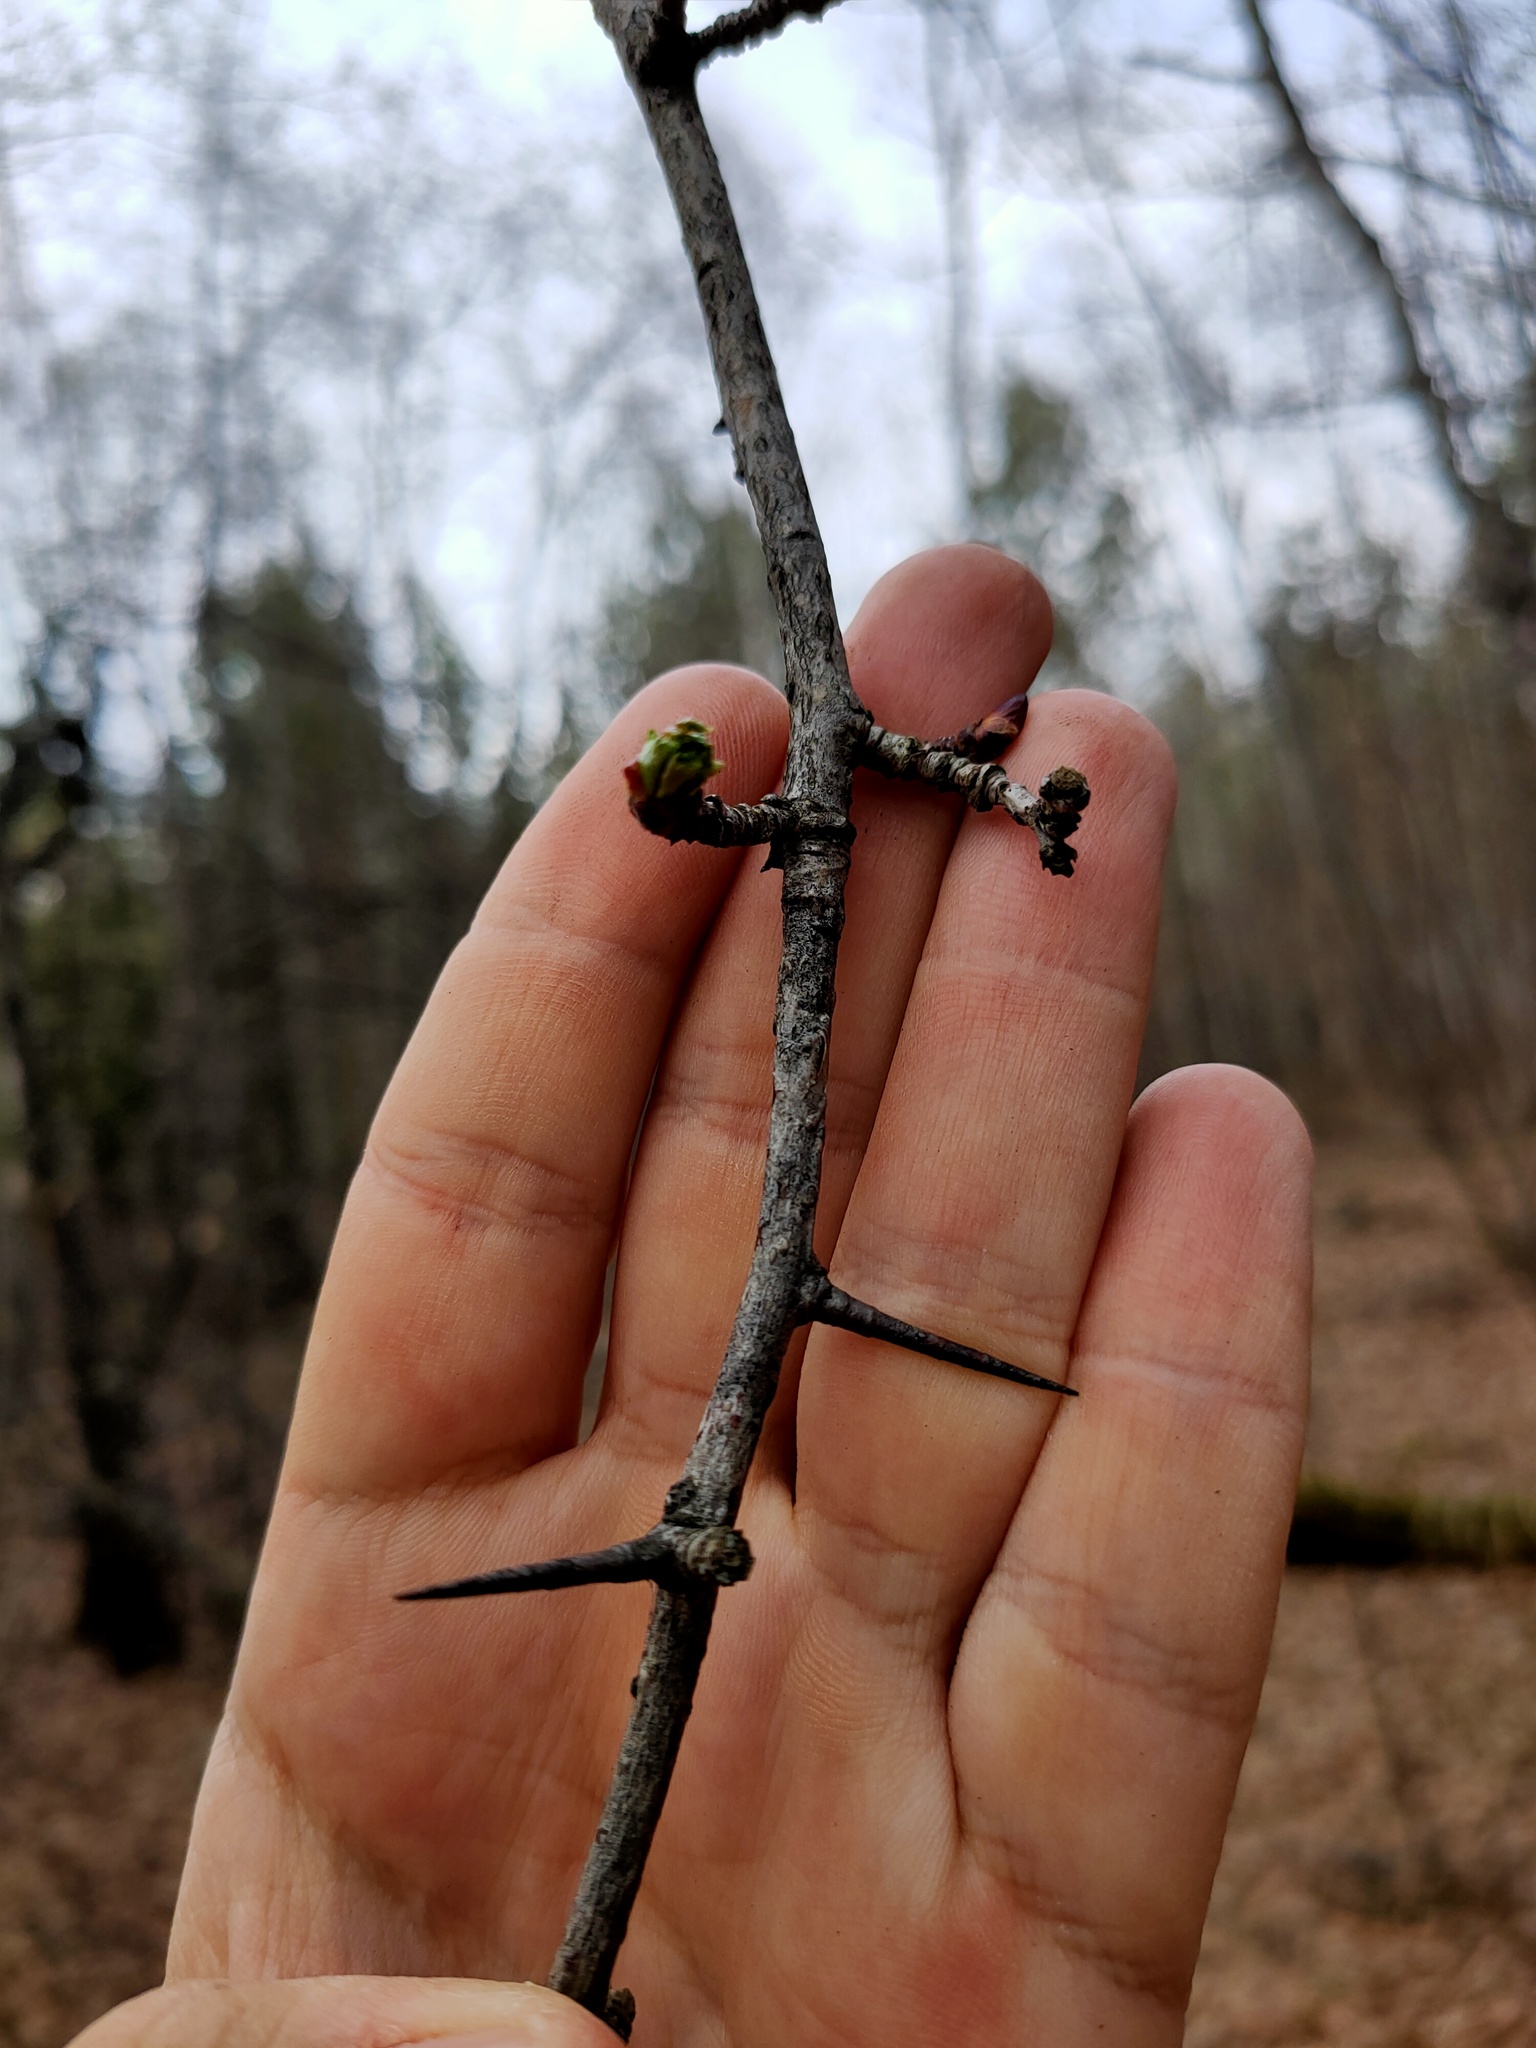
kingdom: Plantae
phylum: Tracheophyta
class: Magnoliopsida
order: Rosales
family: Rosaceae
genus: Crataegus
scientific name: Crataegus
